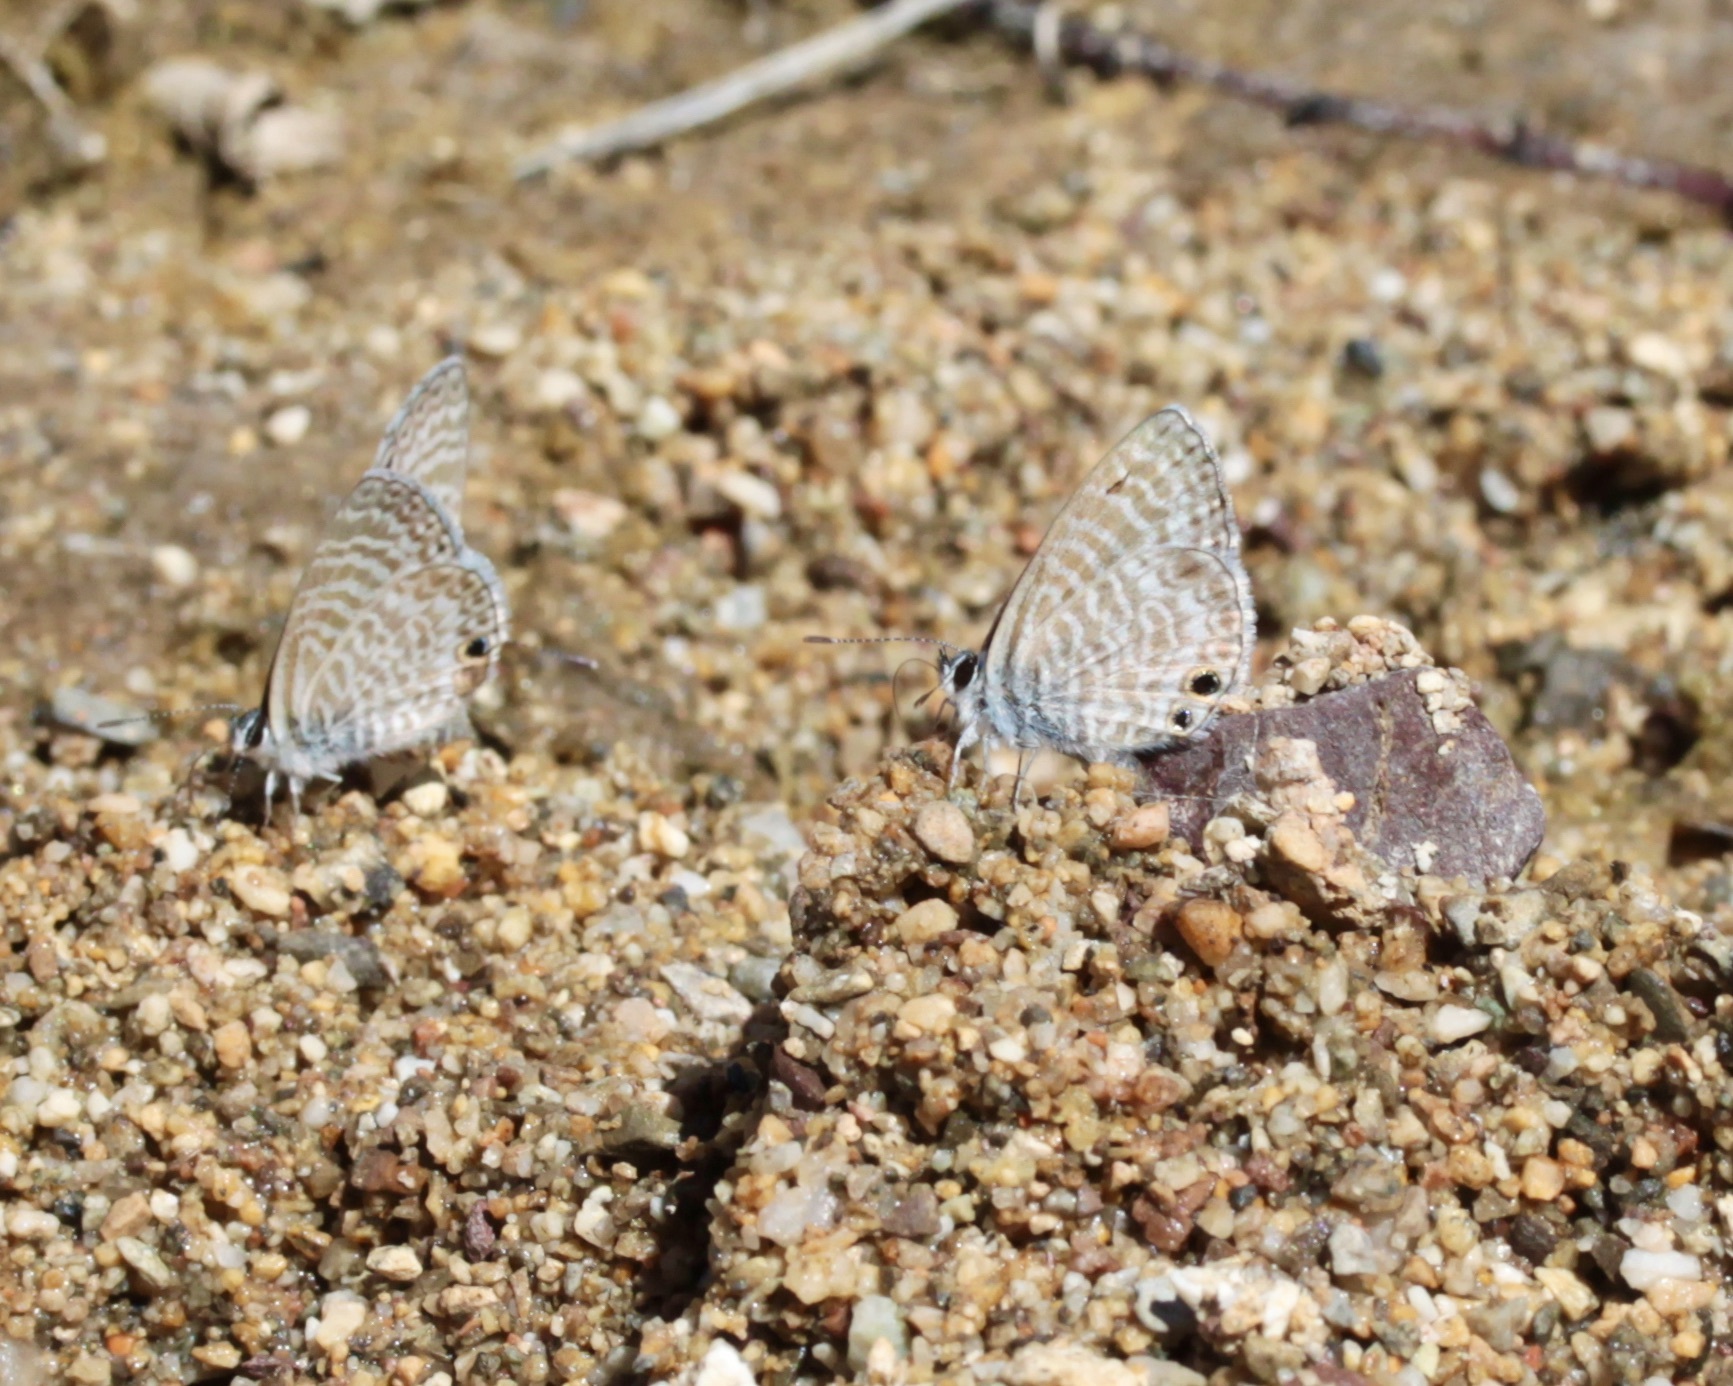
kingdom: Animalia
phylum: Arthropoda
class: Insecta
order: Lepidoptera
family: Lycaenidae
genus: Leptotes
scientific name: Leptotes marina
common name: Marine blue
